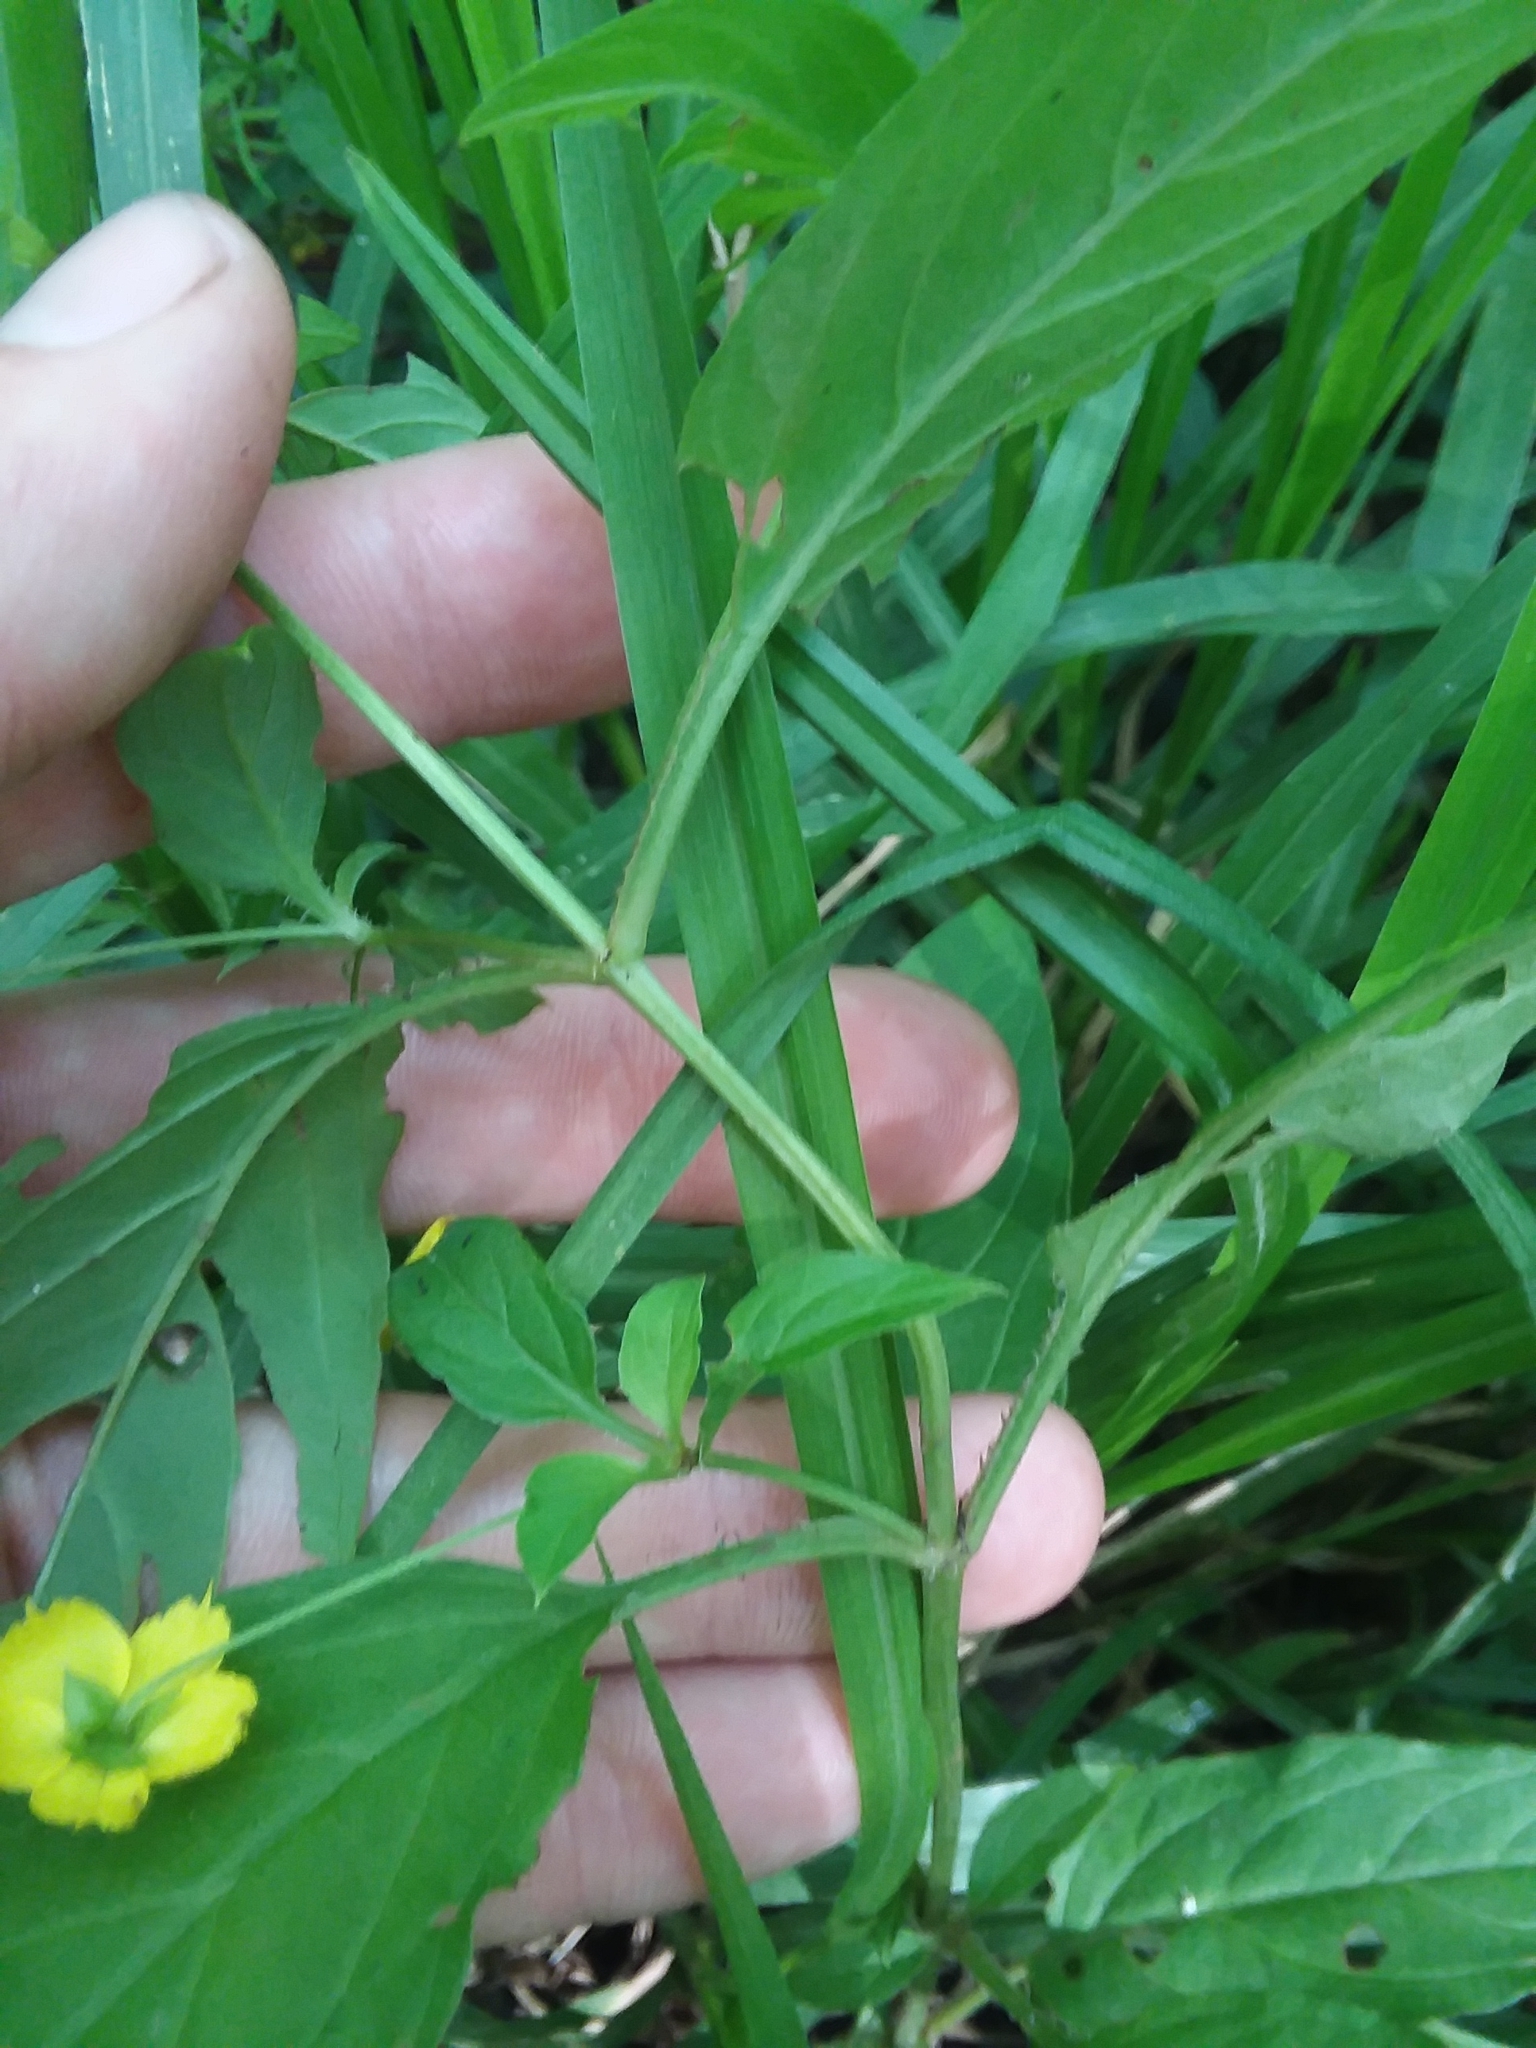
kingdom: Plantae
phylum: Tracheophyta
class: Magnoliopsida
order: Ericales
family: Primulaceae
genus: Lysimachia
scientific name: Lysimachia ciliata
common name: Fringed loosestrife
